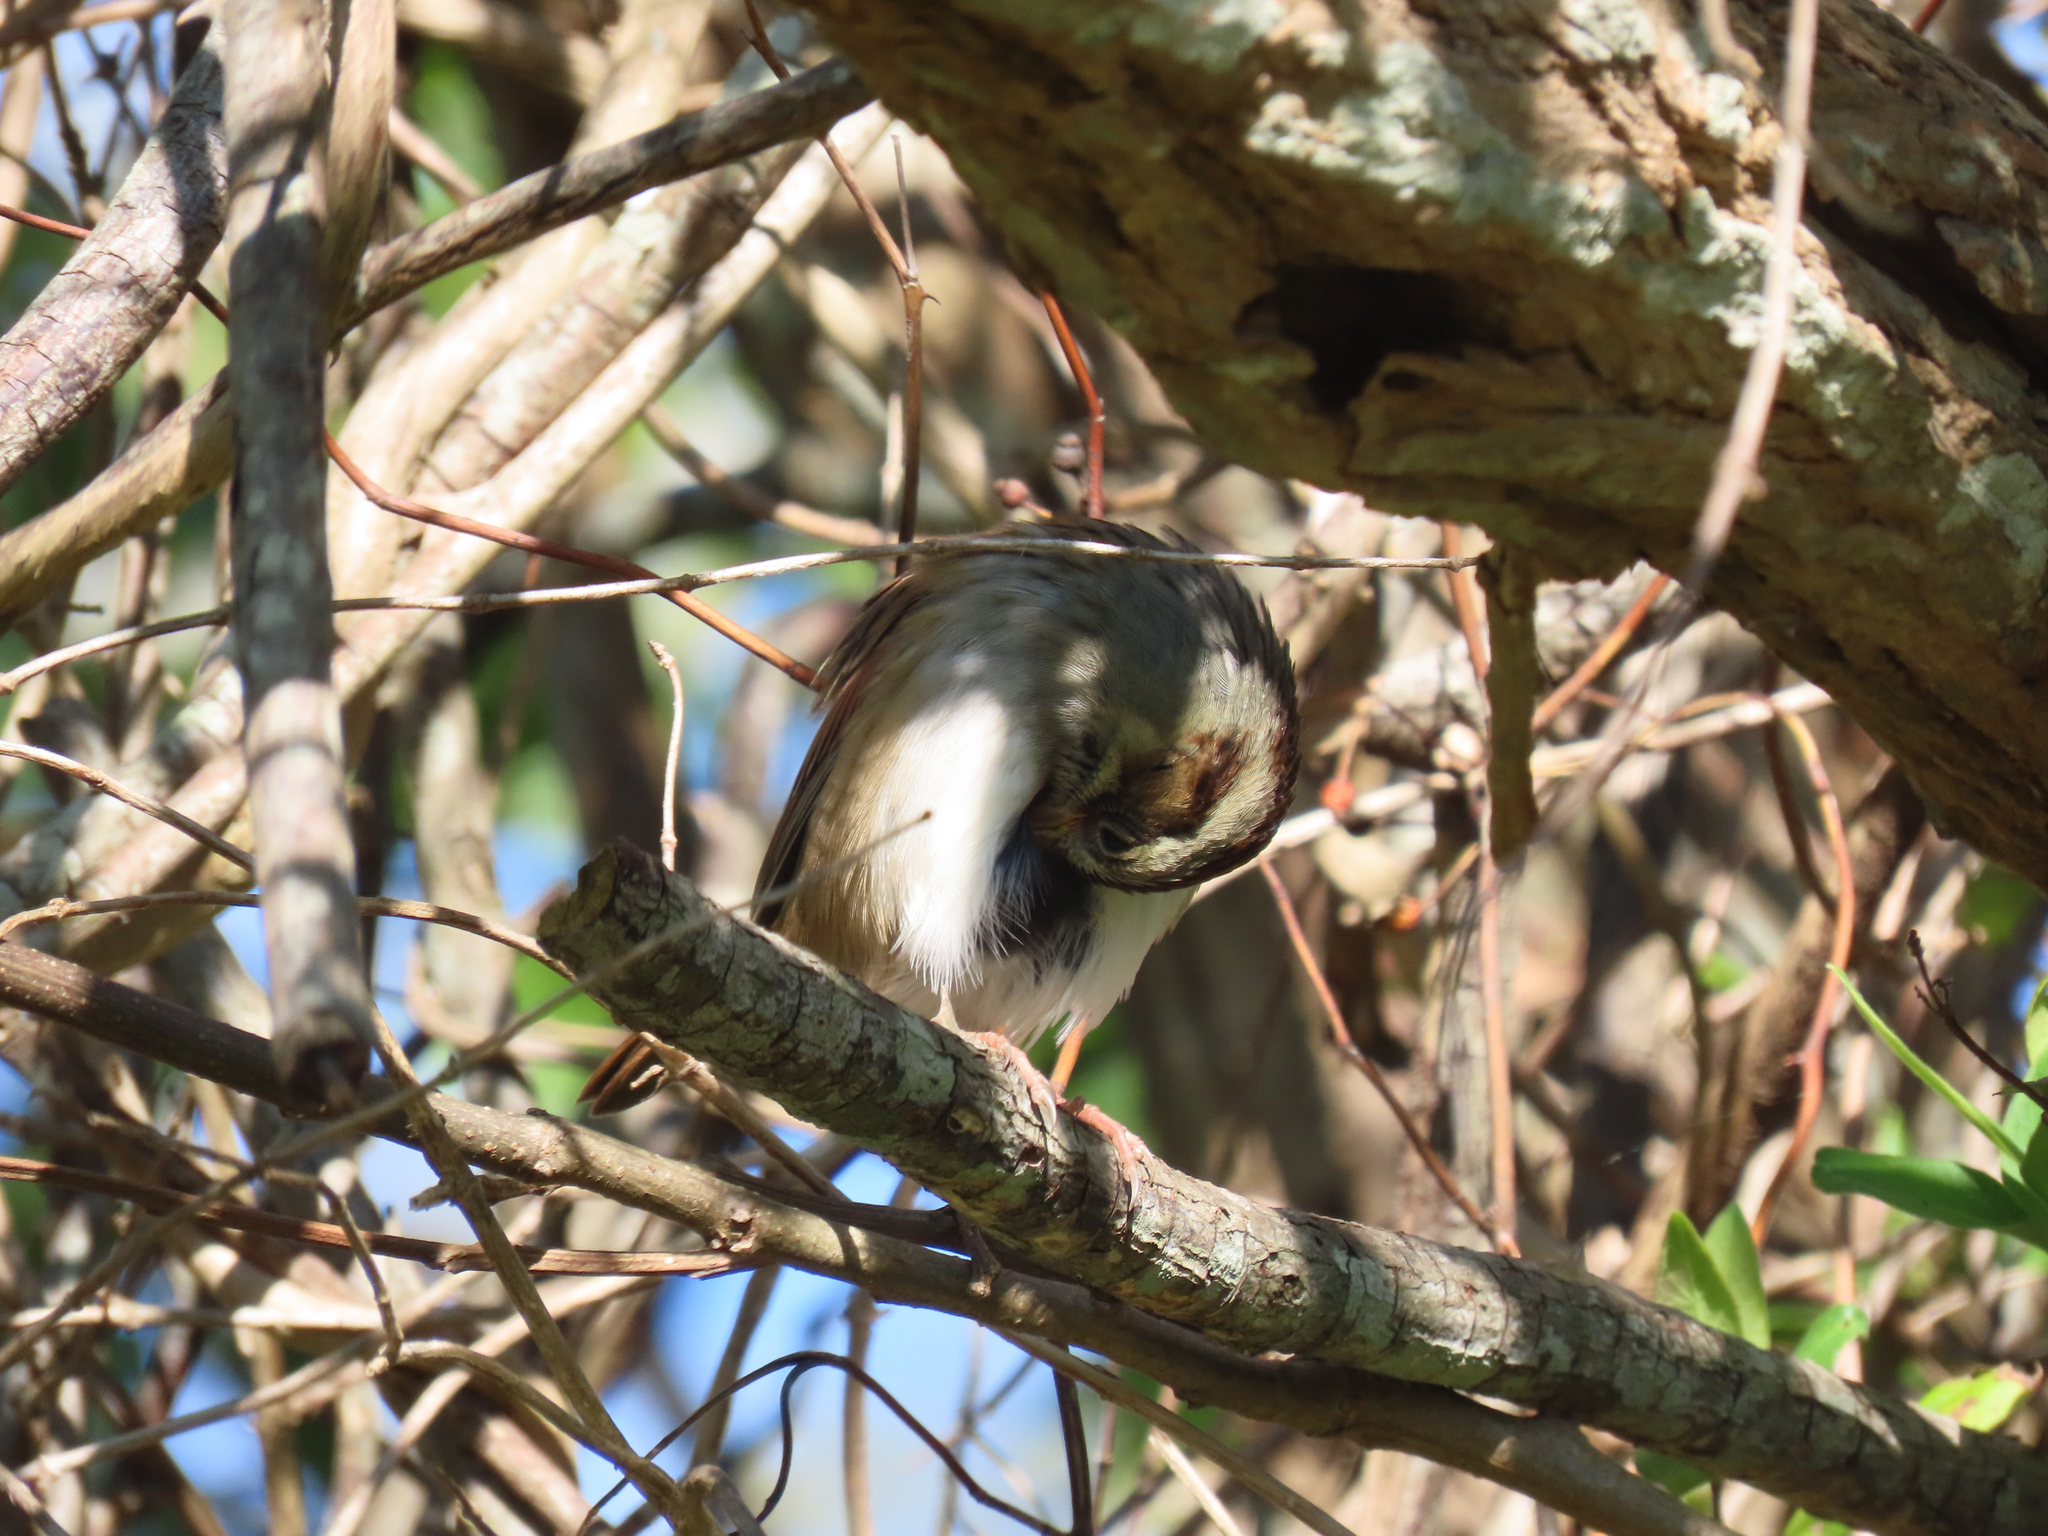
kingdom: Animalia
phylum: Chordata
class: Aves
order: Passeriformes
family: Passerellidae
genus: Melospiza
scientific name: Melospiza georgiana
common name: Swamp sparrow
